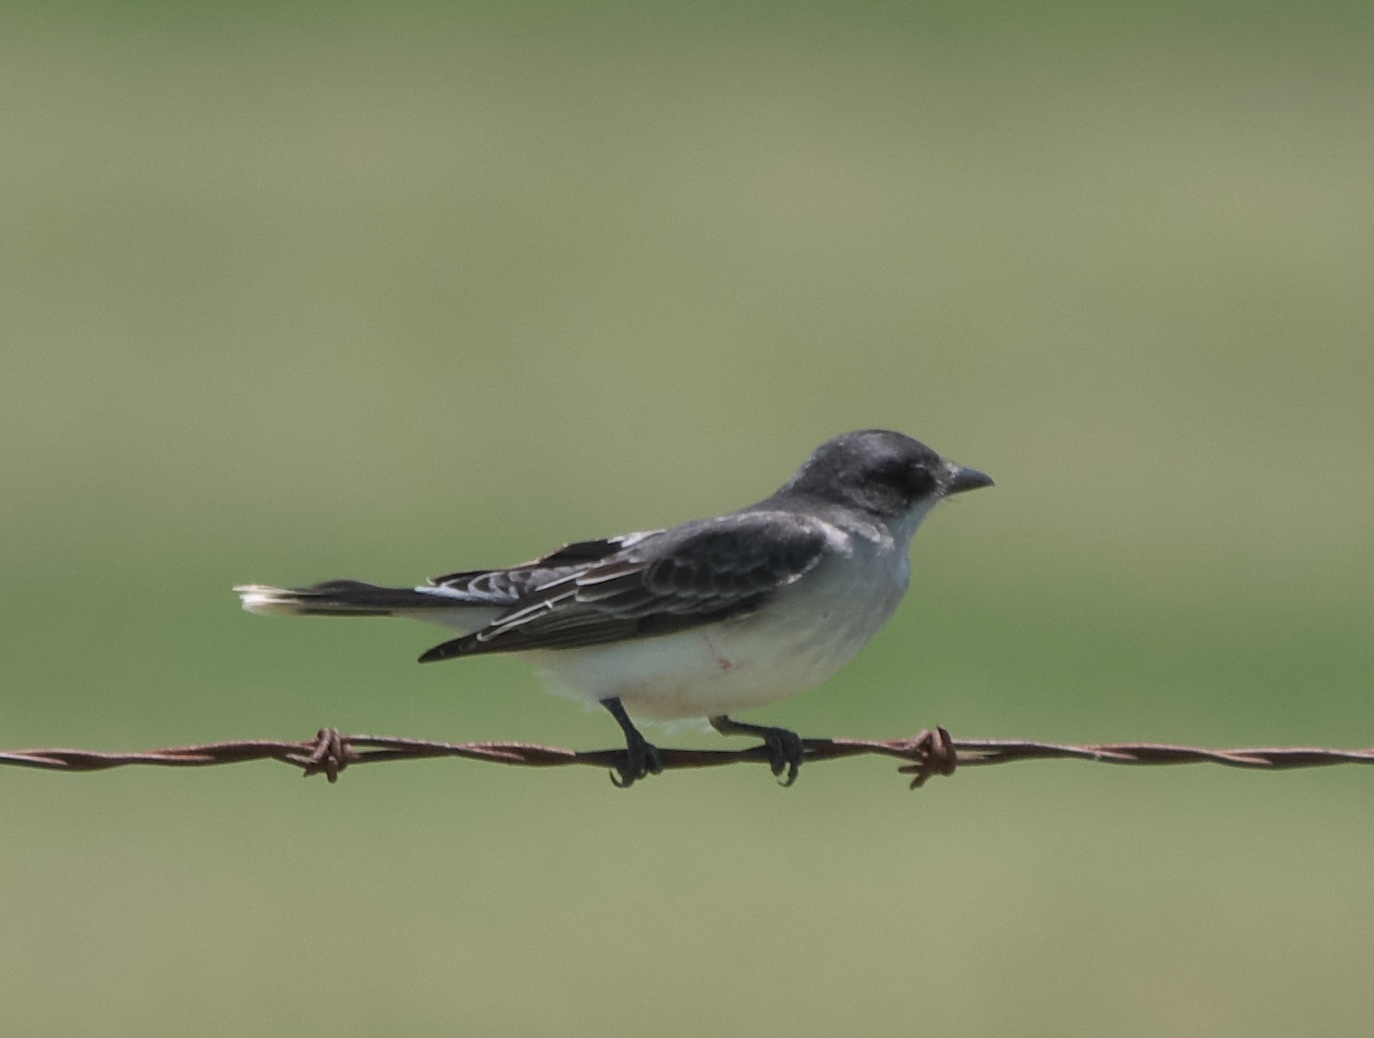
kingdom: Animalia
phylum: Chordata
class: Aves
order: Passeriformes
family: Tyrannidae
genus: Tyrannus
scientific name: Tyrannus tyrannus
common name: Eastern kingbird
